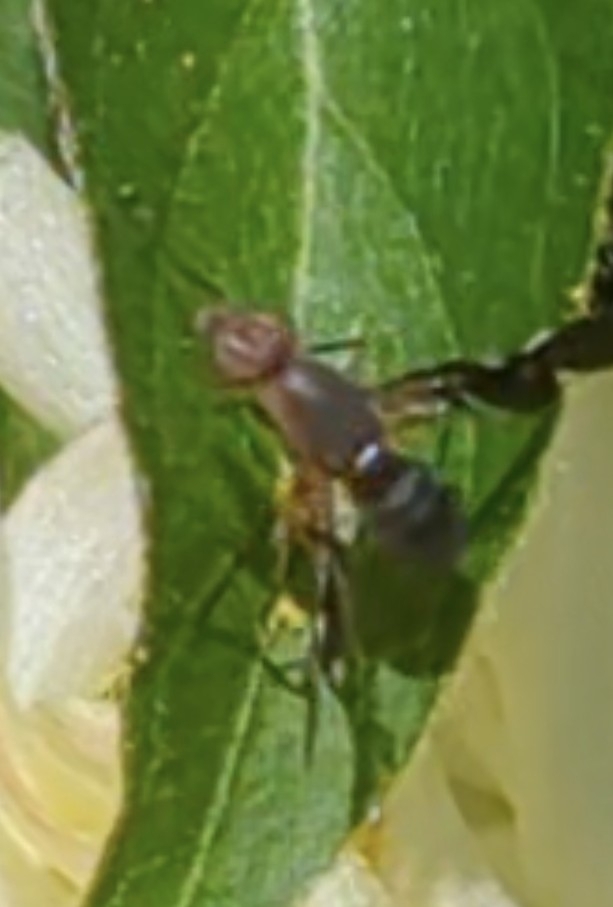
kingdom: Animalia
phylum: Arthropoda
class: Insecta
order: Diptera
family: Ulidiidae
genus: Delphinia
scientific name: Delphinia picta
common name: Common picture-winged fly
